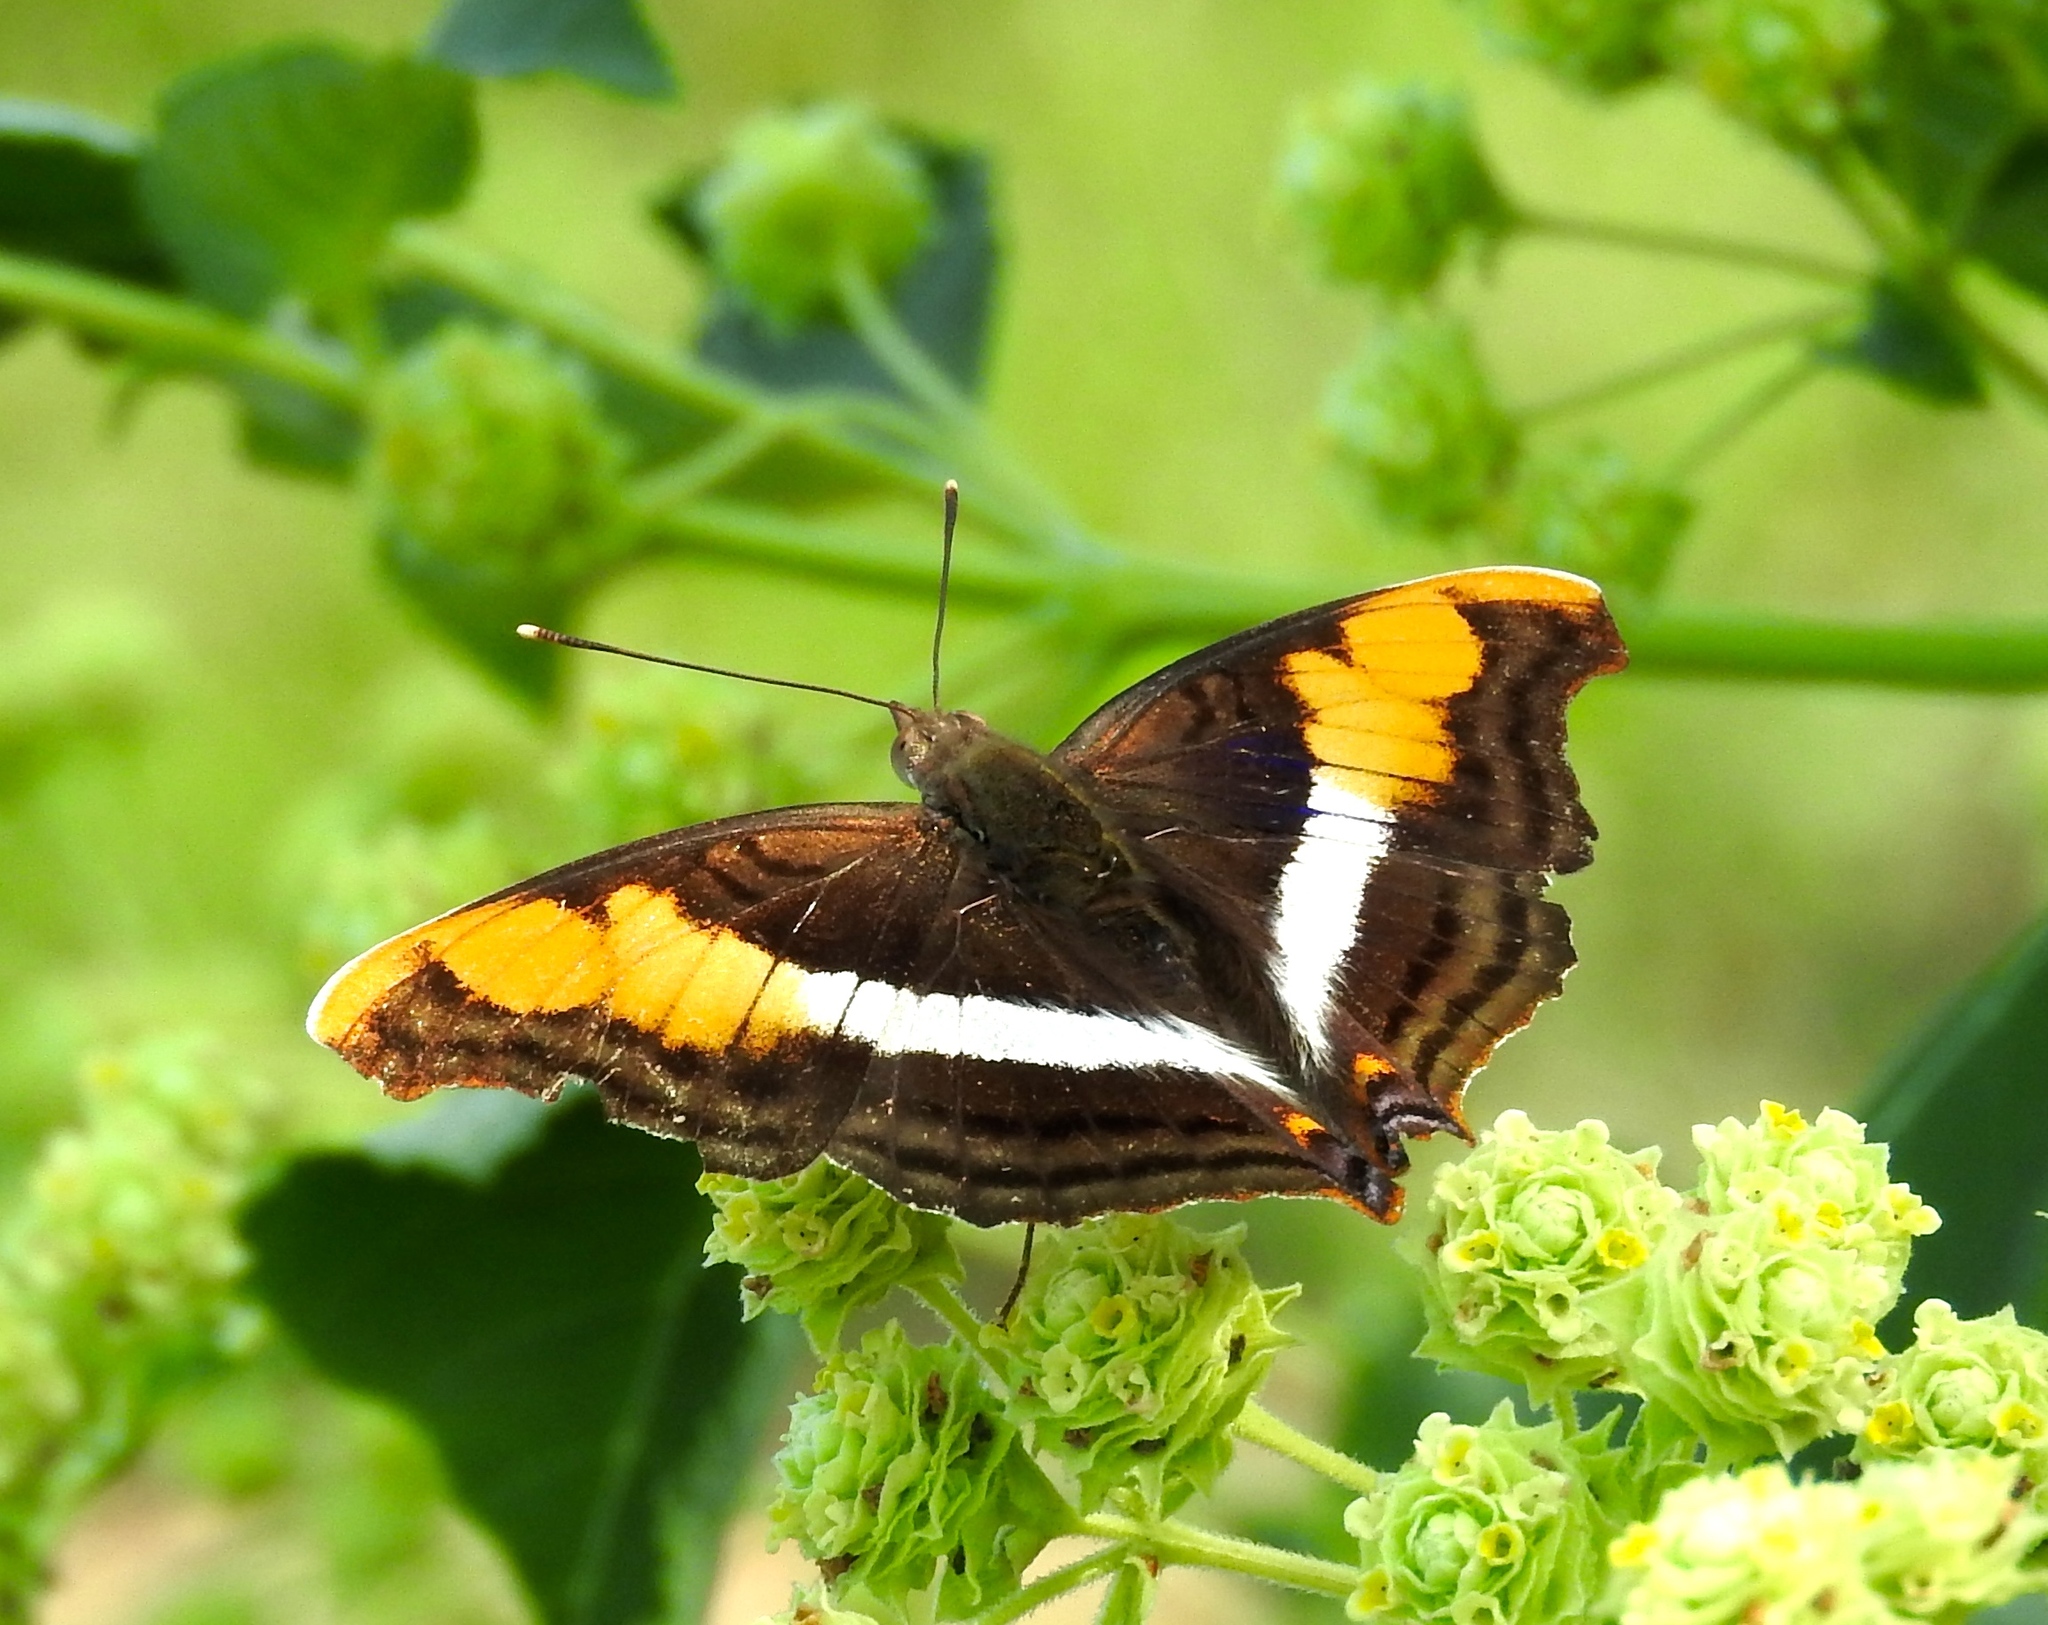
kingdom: Animalia
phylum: Arthropoda
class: Insecta
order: Lepidoptera
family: Nymphalidae
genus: Doxocopa
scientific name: Doxocopa laure
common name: Silver emperor
